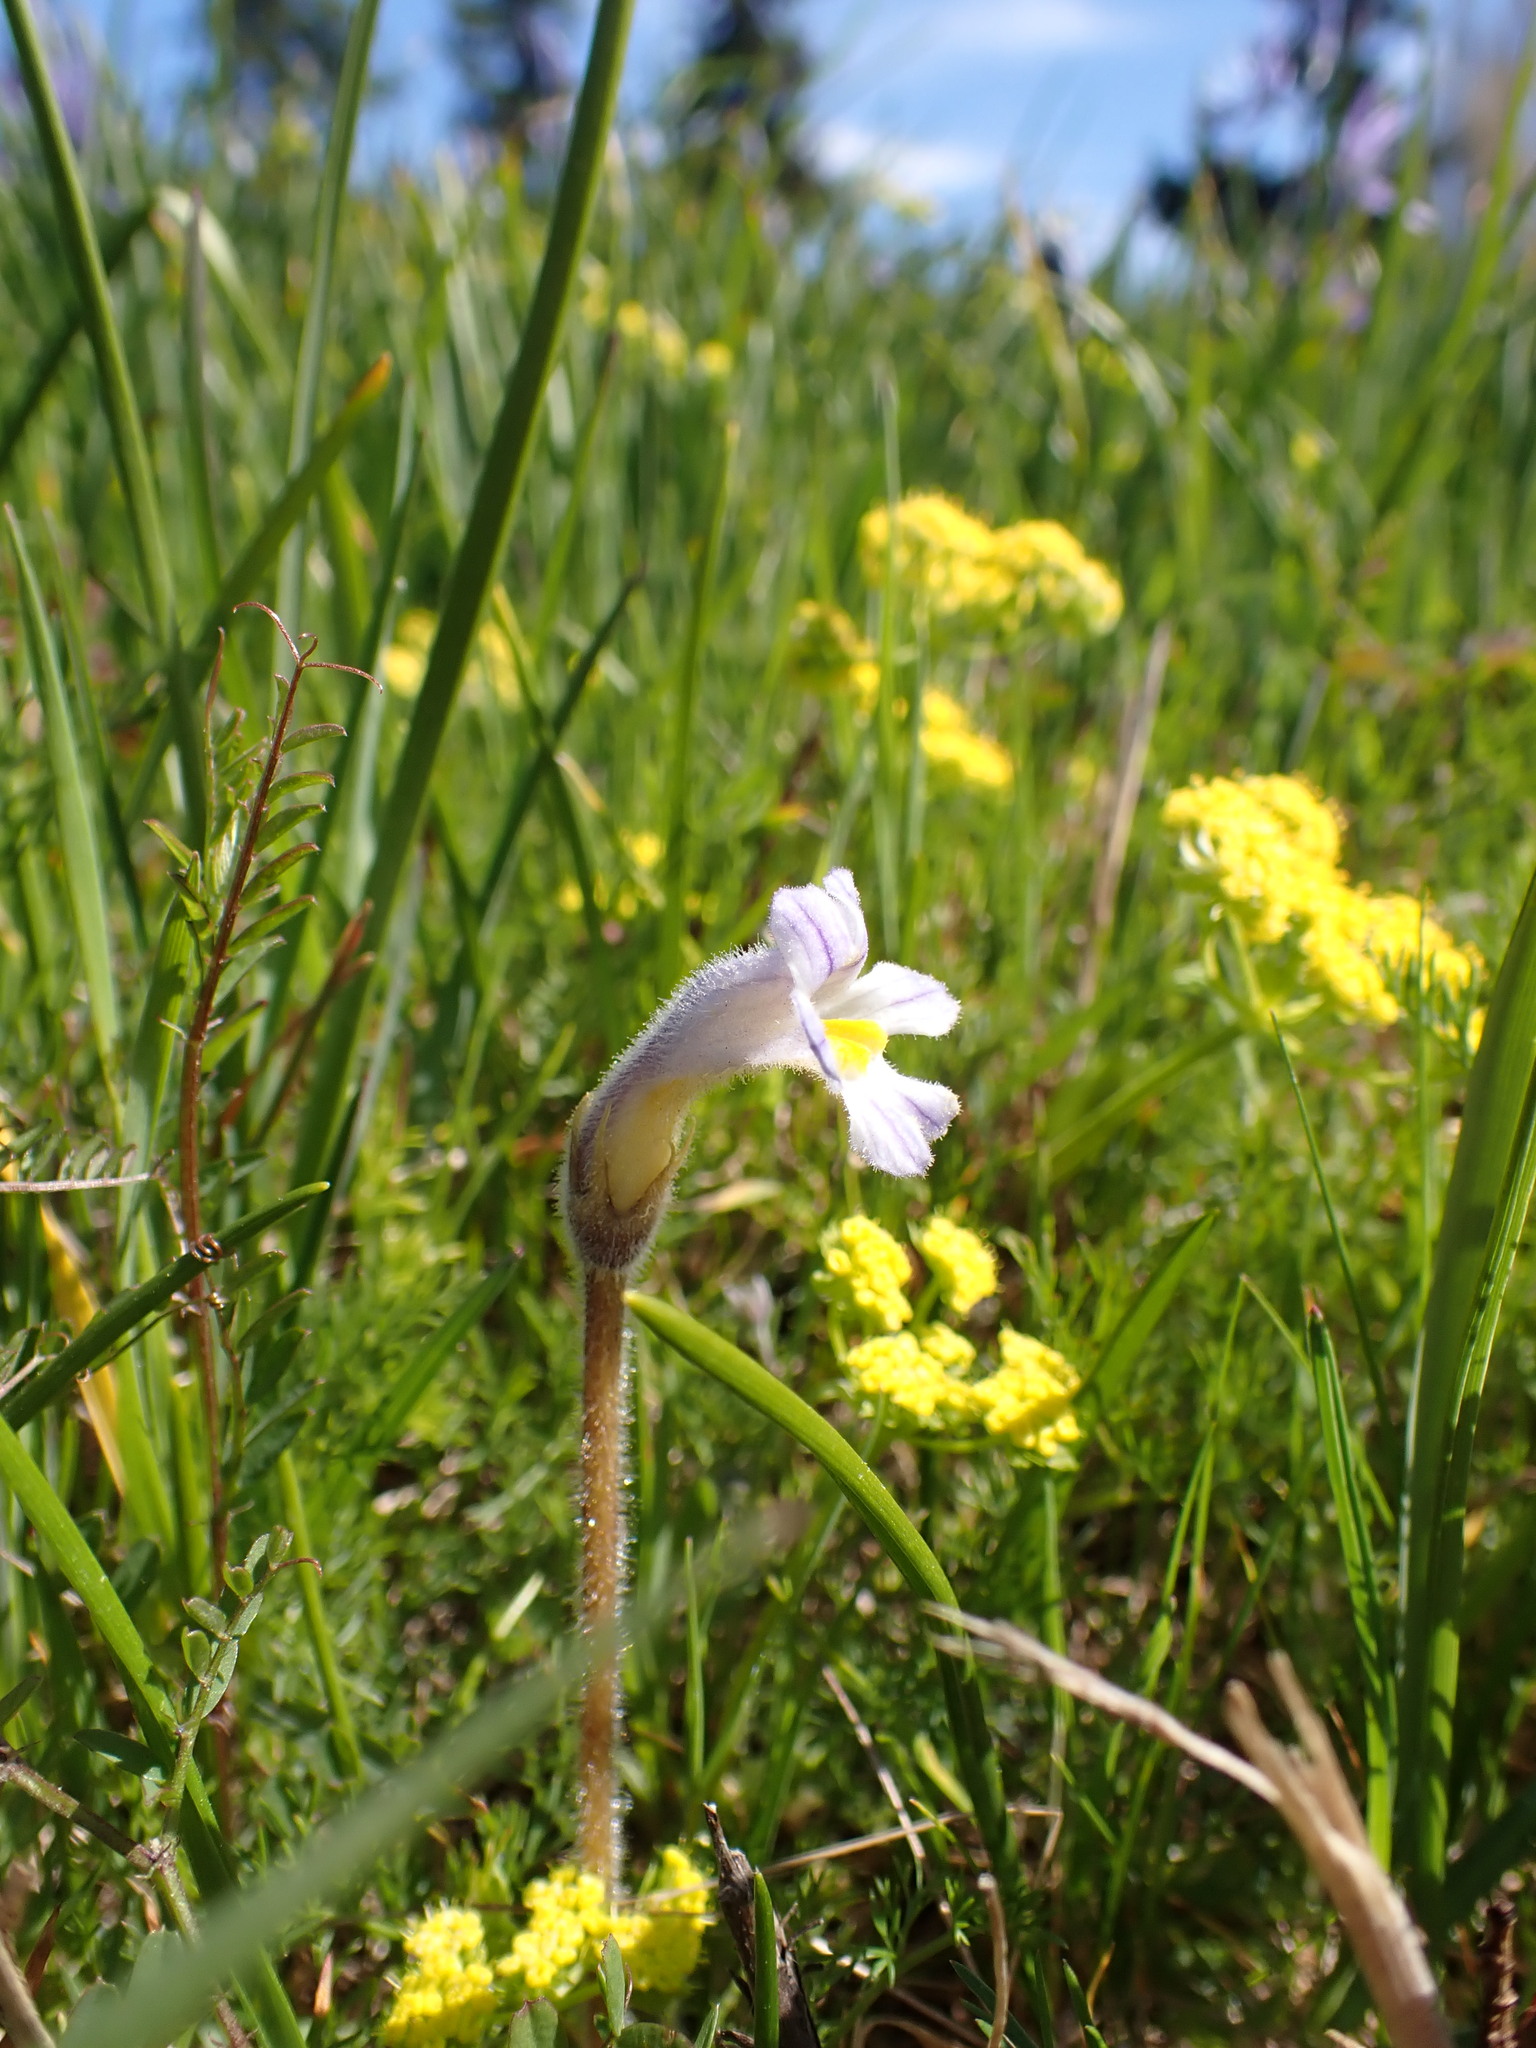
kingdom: Plantae
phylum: Tracheophyta
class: Magnoliopsida
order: Lamiales
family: Orobanchaceae
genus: Aphyllon
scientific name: Aphyllon uniflorum
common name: One-flowered broomrape
